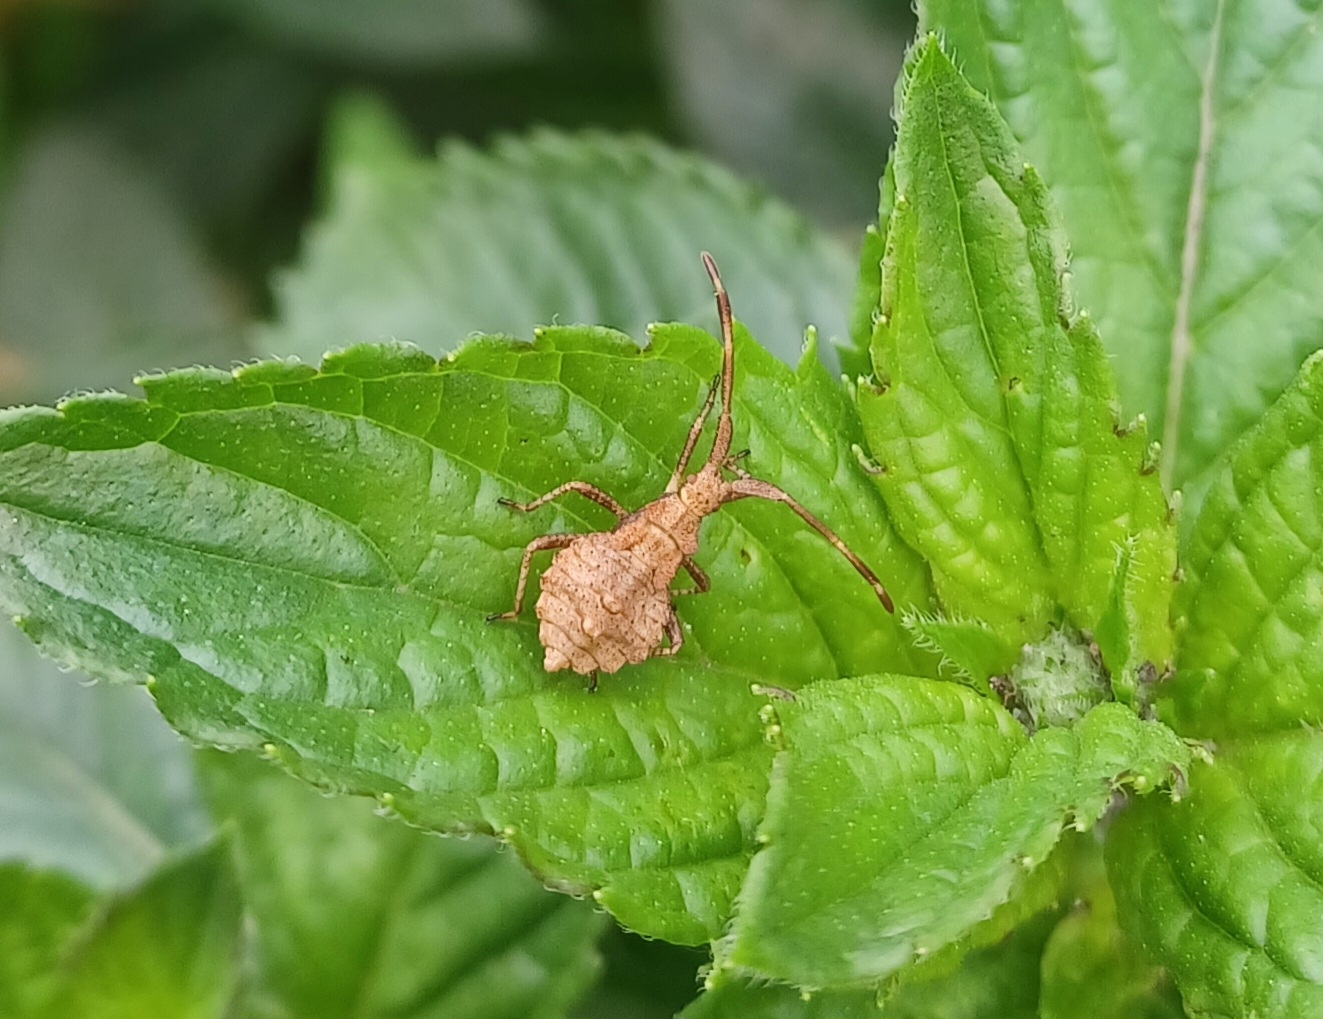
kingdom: Animalia
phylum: Arthropoda
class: Insecta
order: Hemiptera
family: Coreidae
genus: Coreus
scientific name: Coreus marginatus
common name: Dock bug
